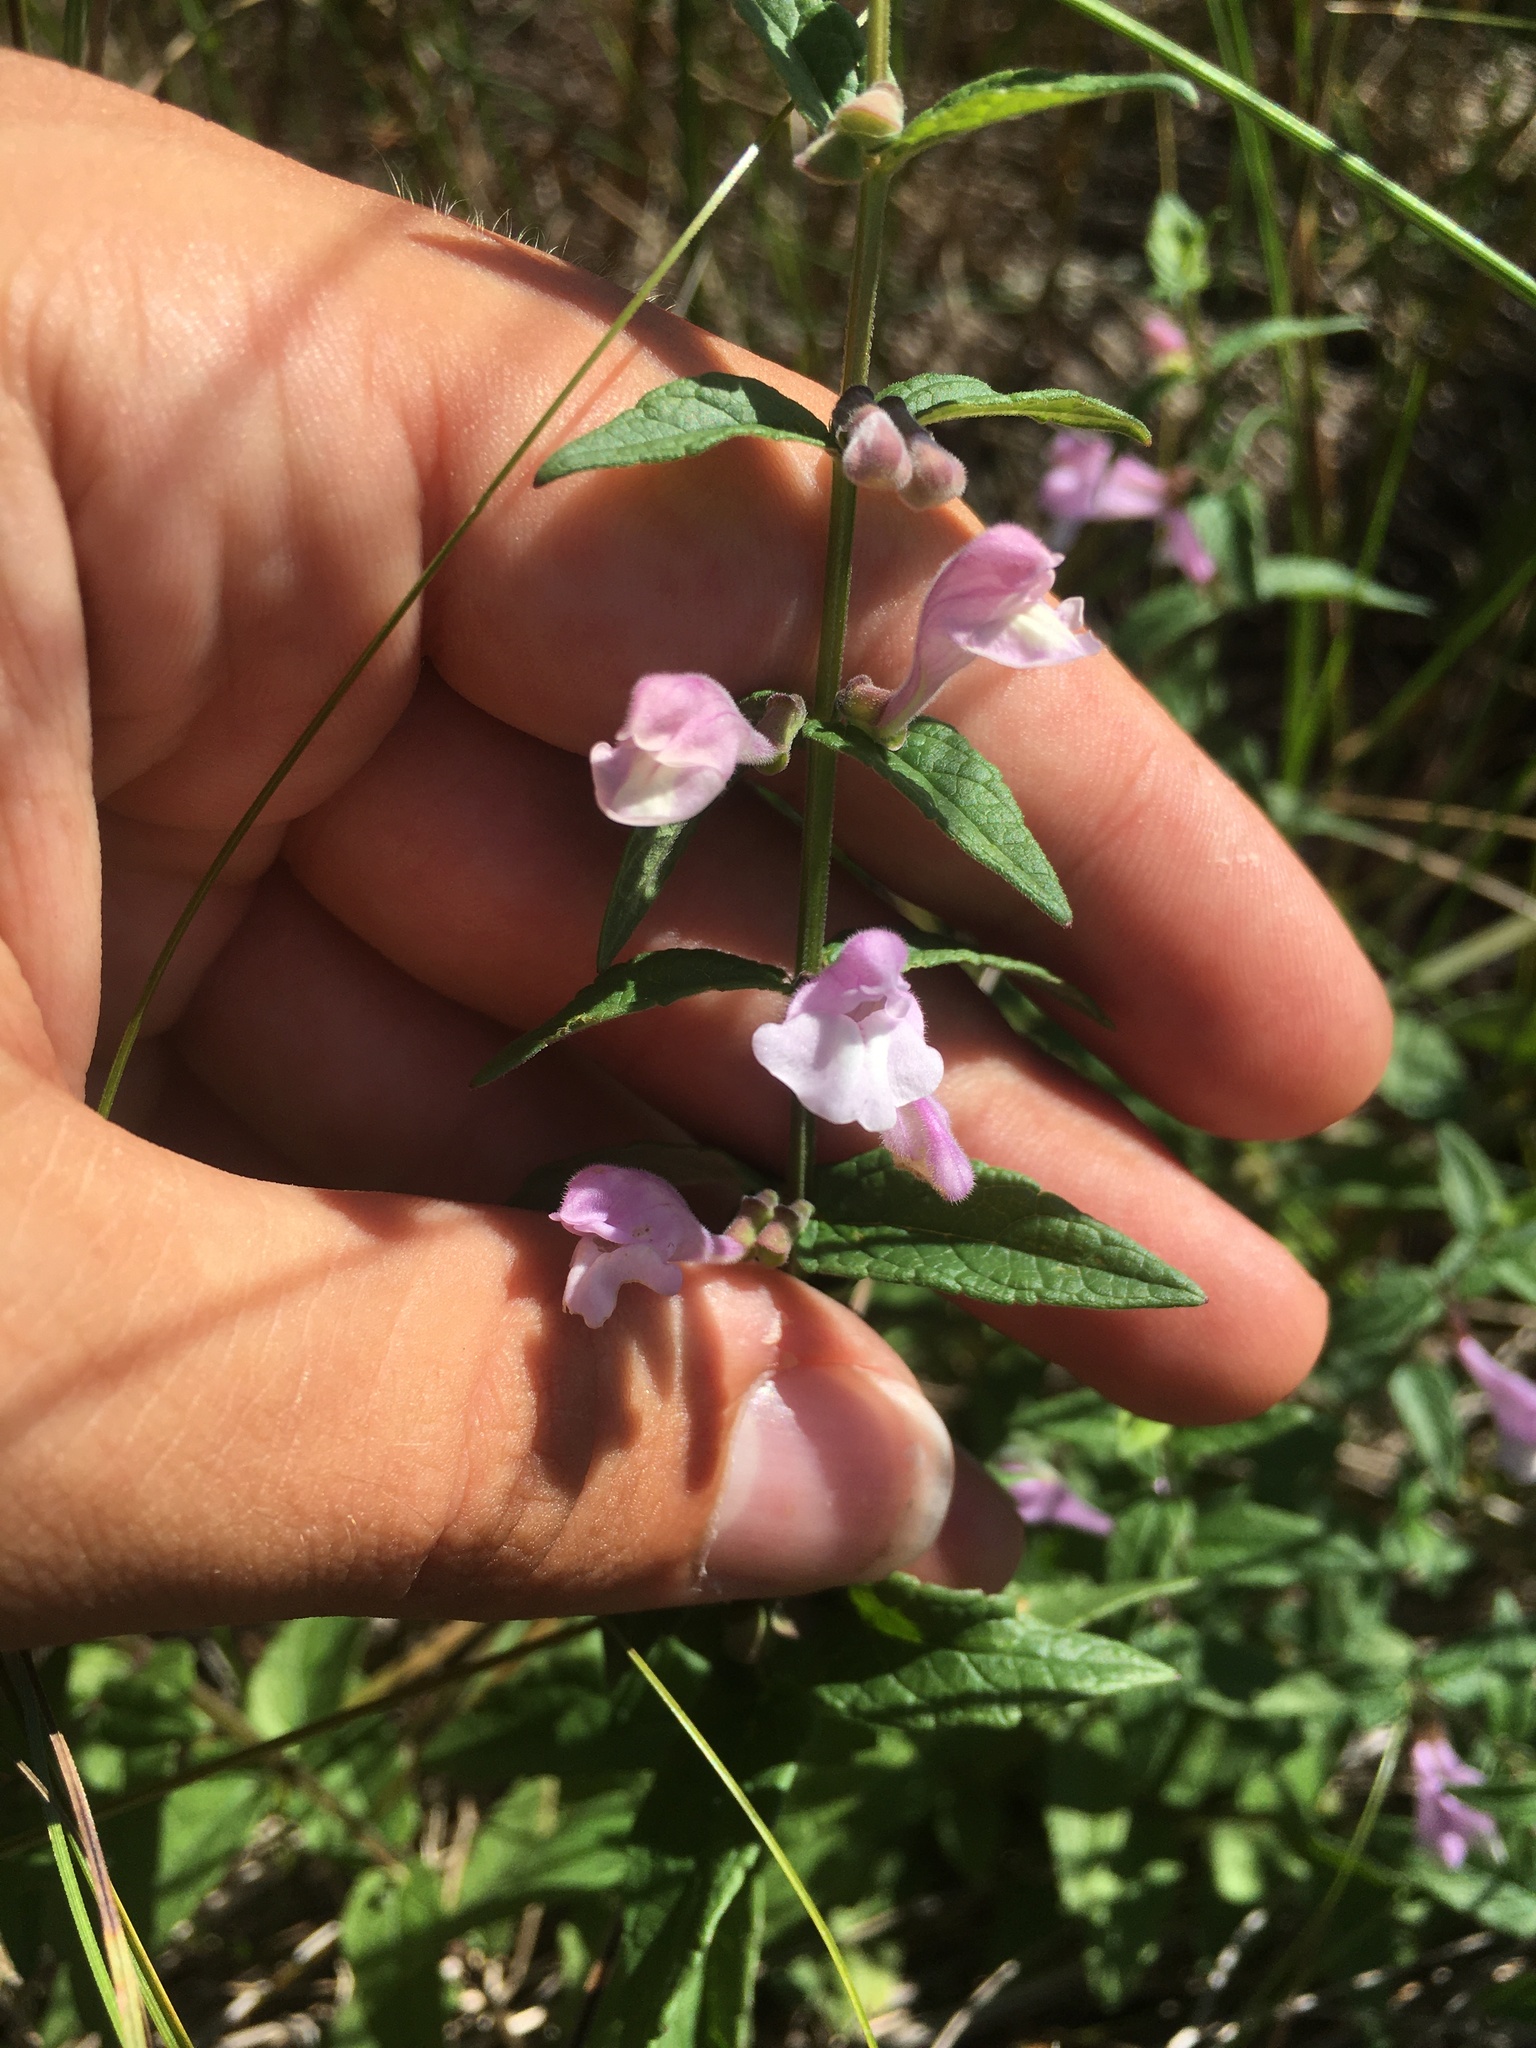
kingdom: Plantae
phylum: Tracheophyta
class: Magnoliopsida
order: Lamiales
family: Lamiaceae
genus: Scutellaria
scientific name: Scutellaria galericulata
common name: Skullcap
